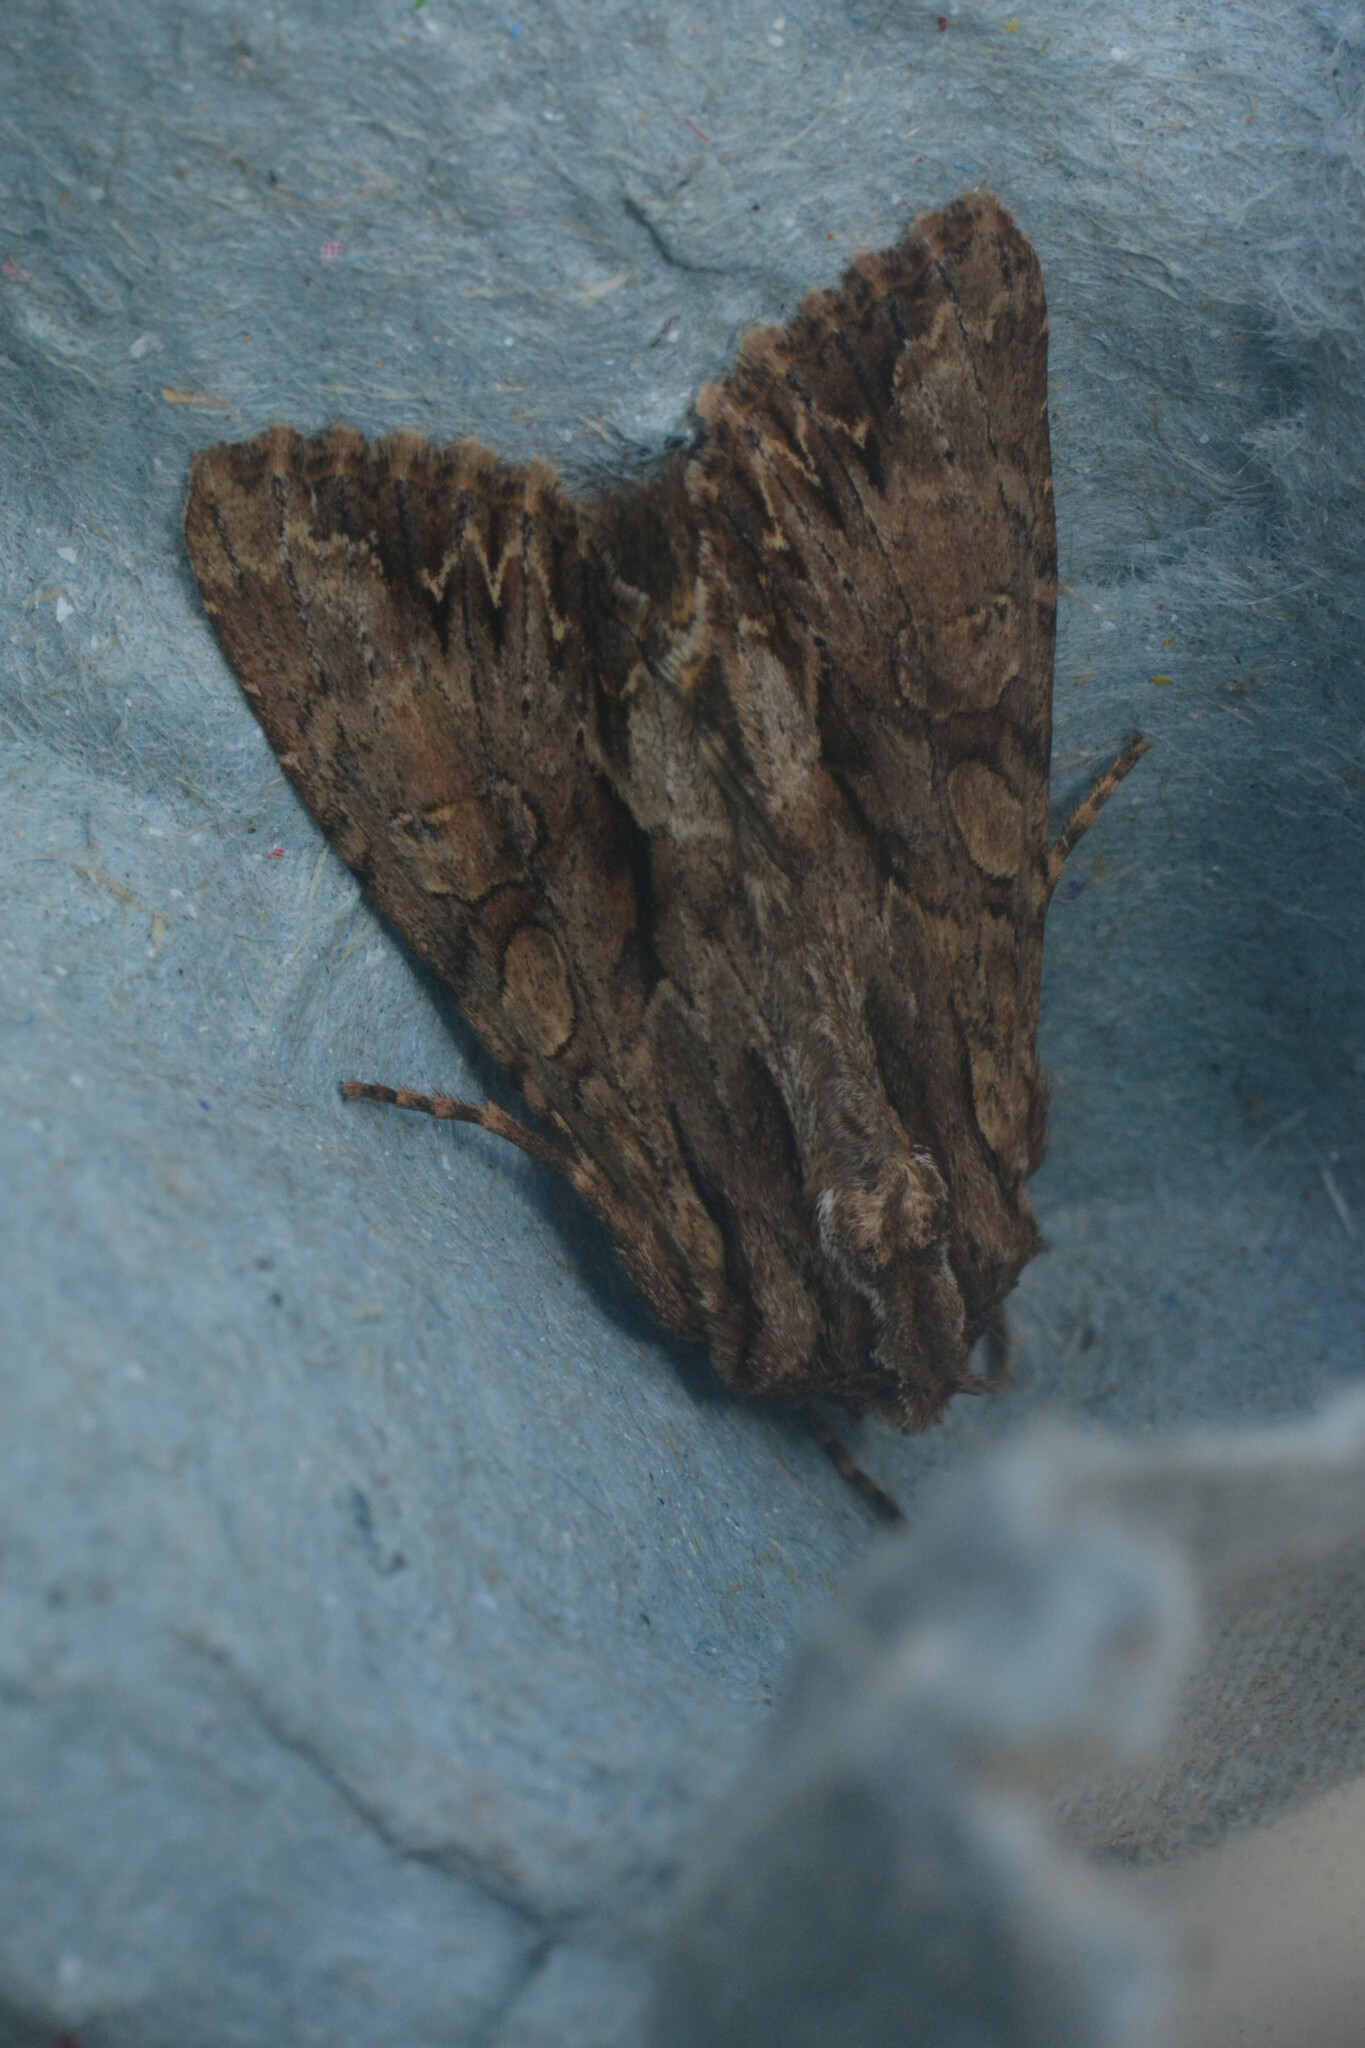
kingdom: Animalia
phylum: Arthropoda
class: Insecta
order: Lepidoptera
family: Noctuidae
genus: Apamea
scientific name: Apamea monoglypha
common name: Dark arches
